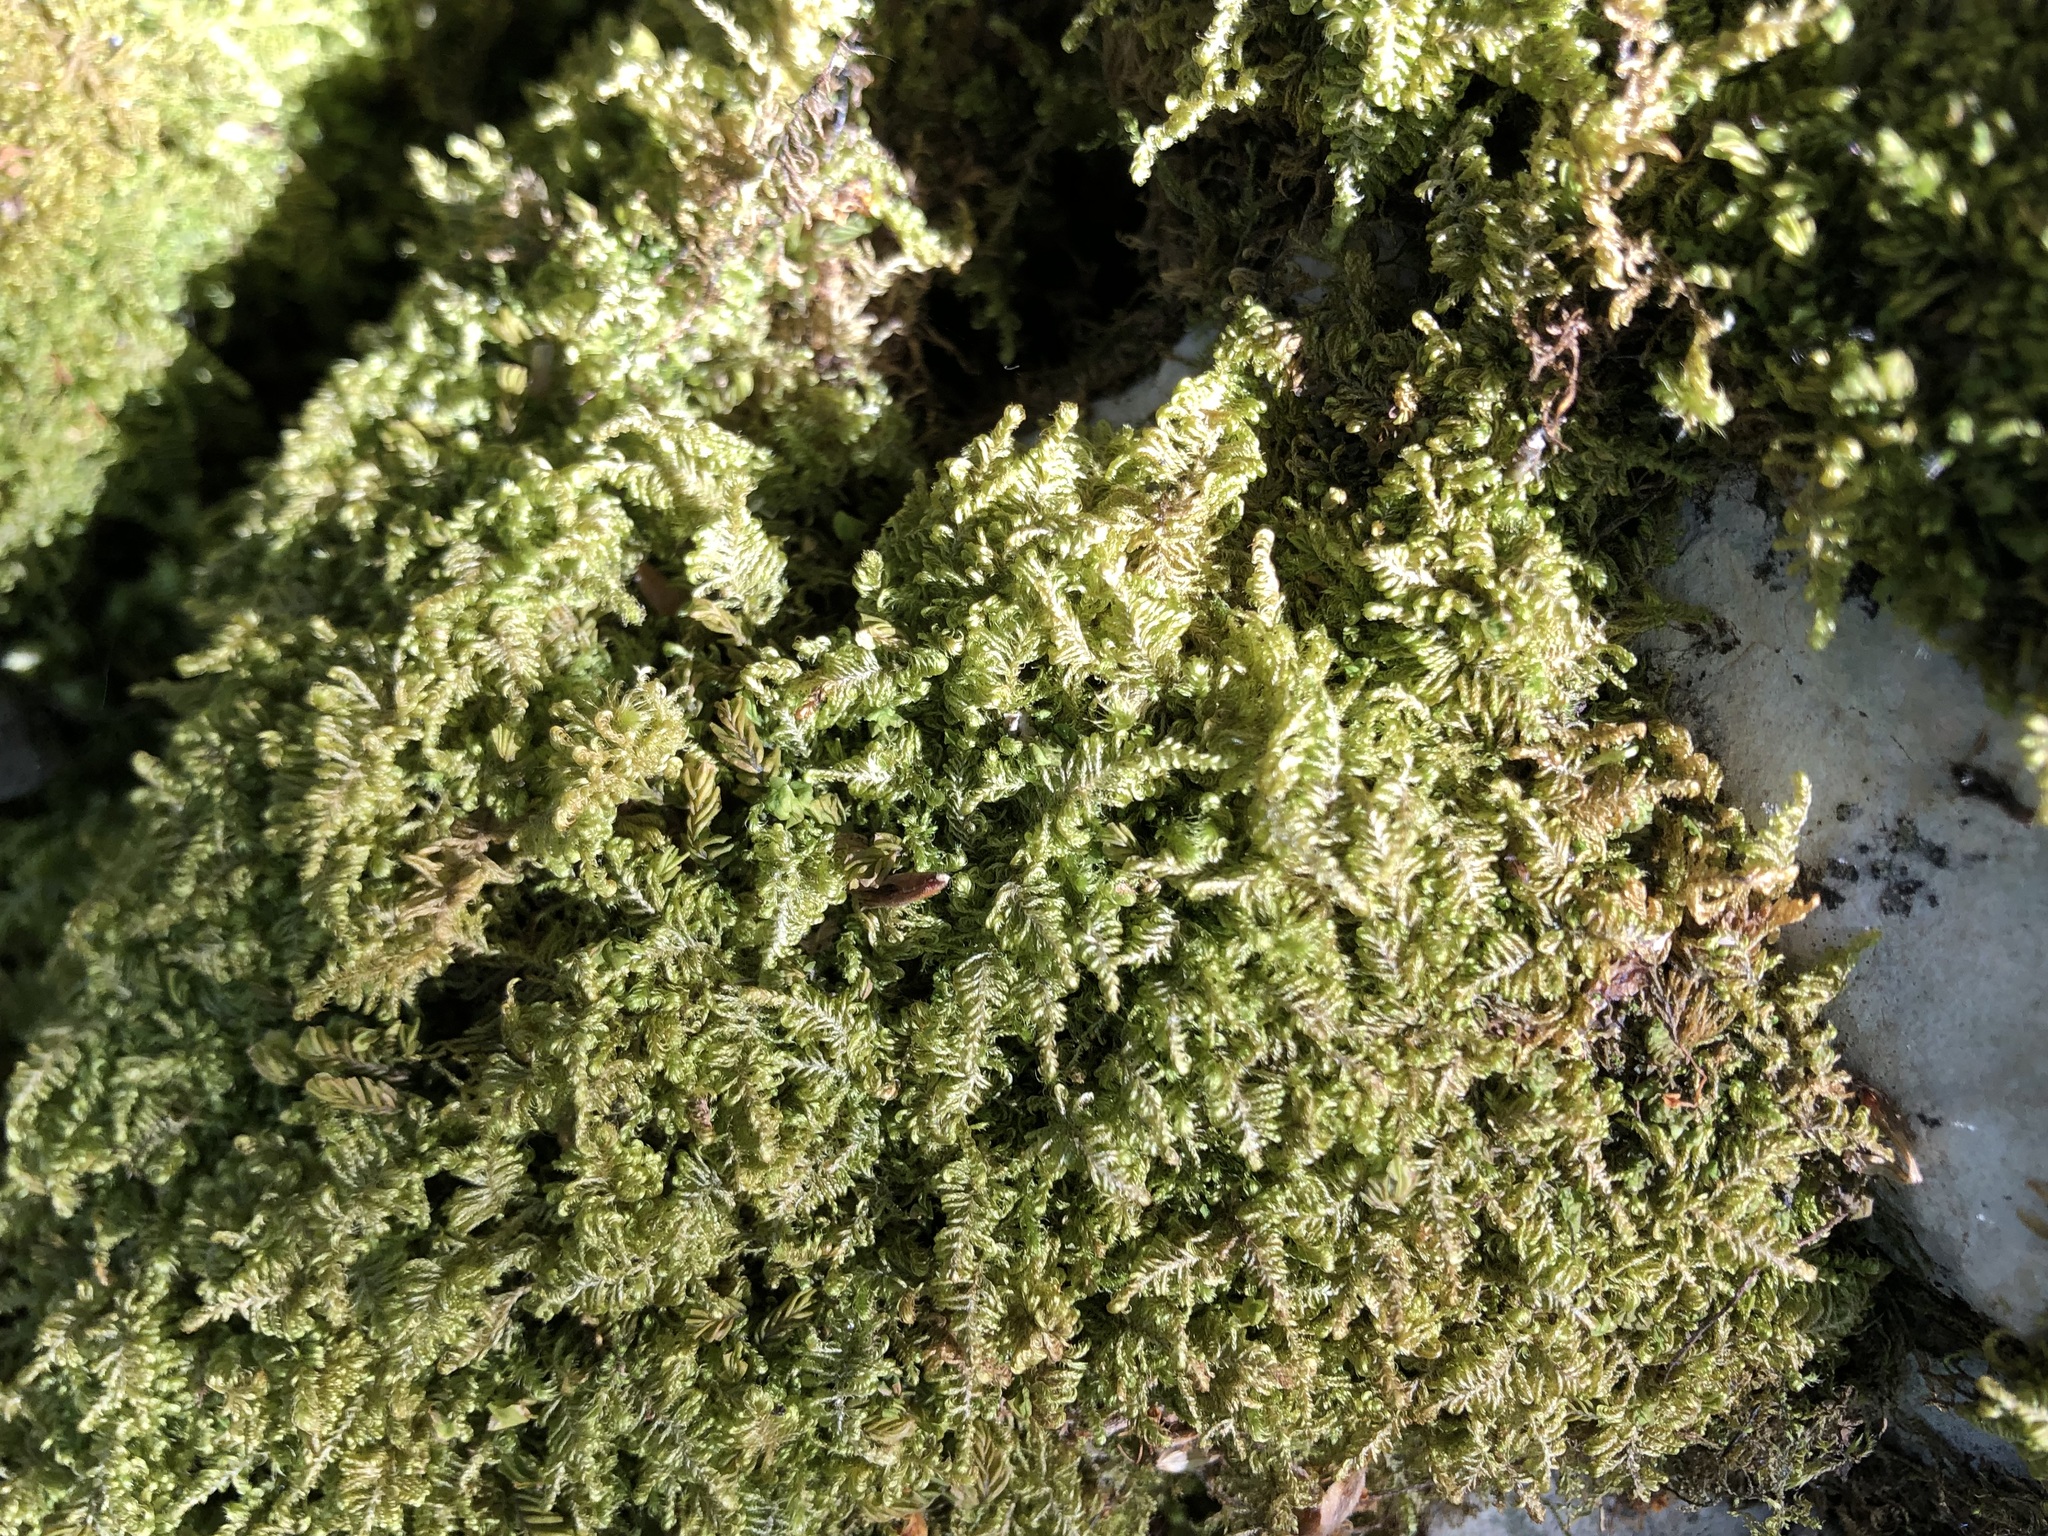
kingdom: Plantae
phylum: Bryophyta
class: Bryopsida
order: Hypnales
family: Myuriaceae
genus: Ctenidium
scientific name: Ctenidium molluscum
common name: Chalk comb-moss
